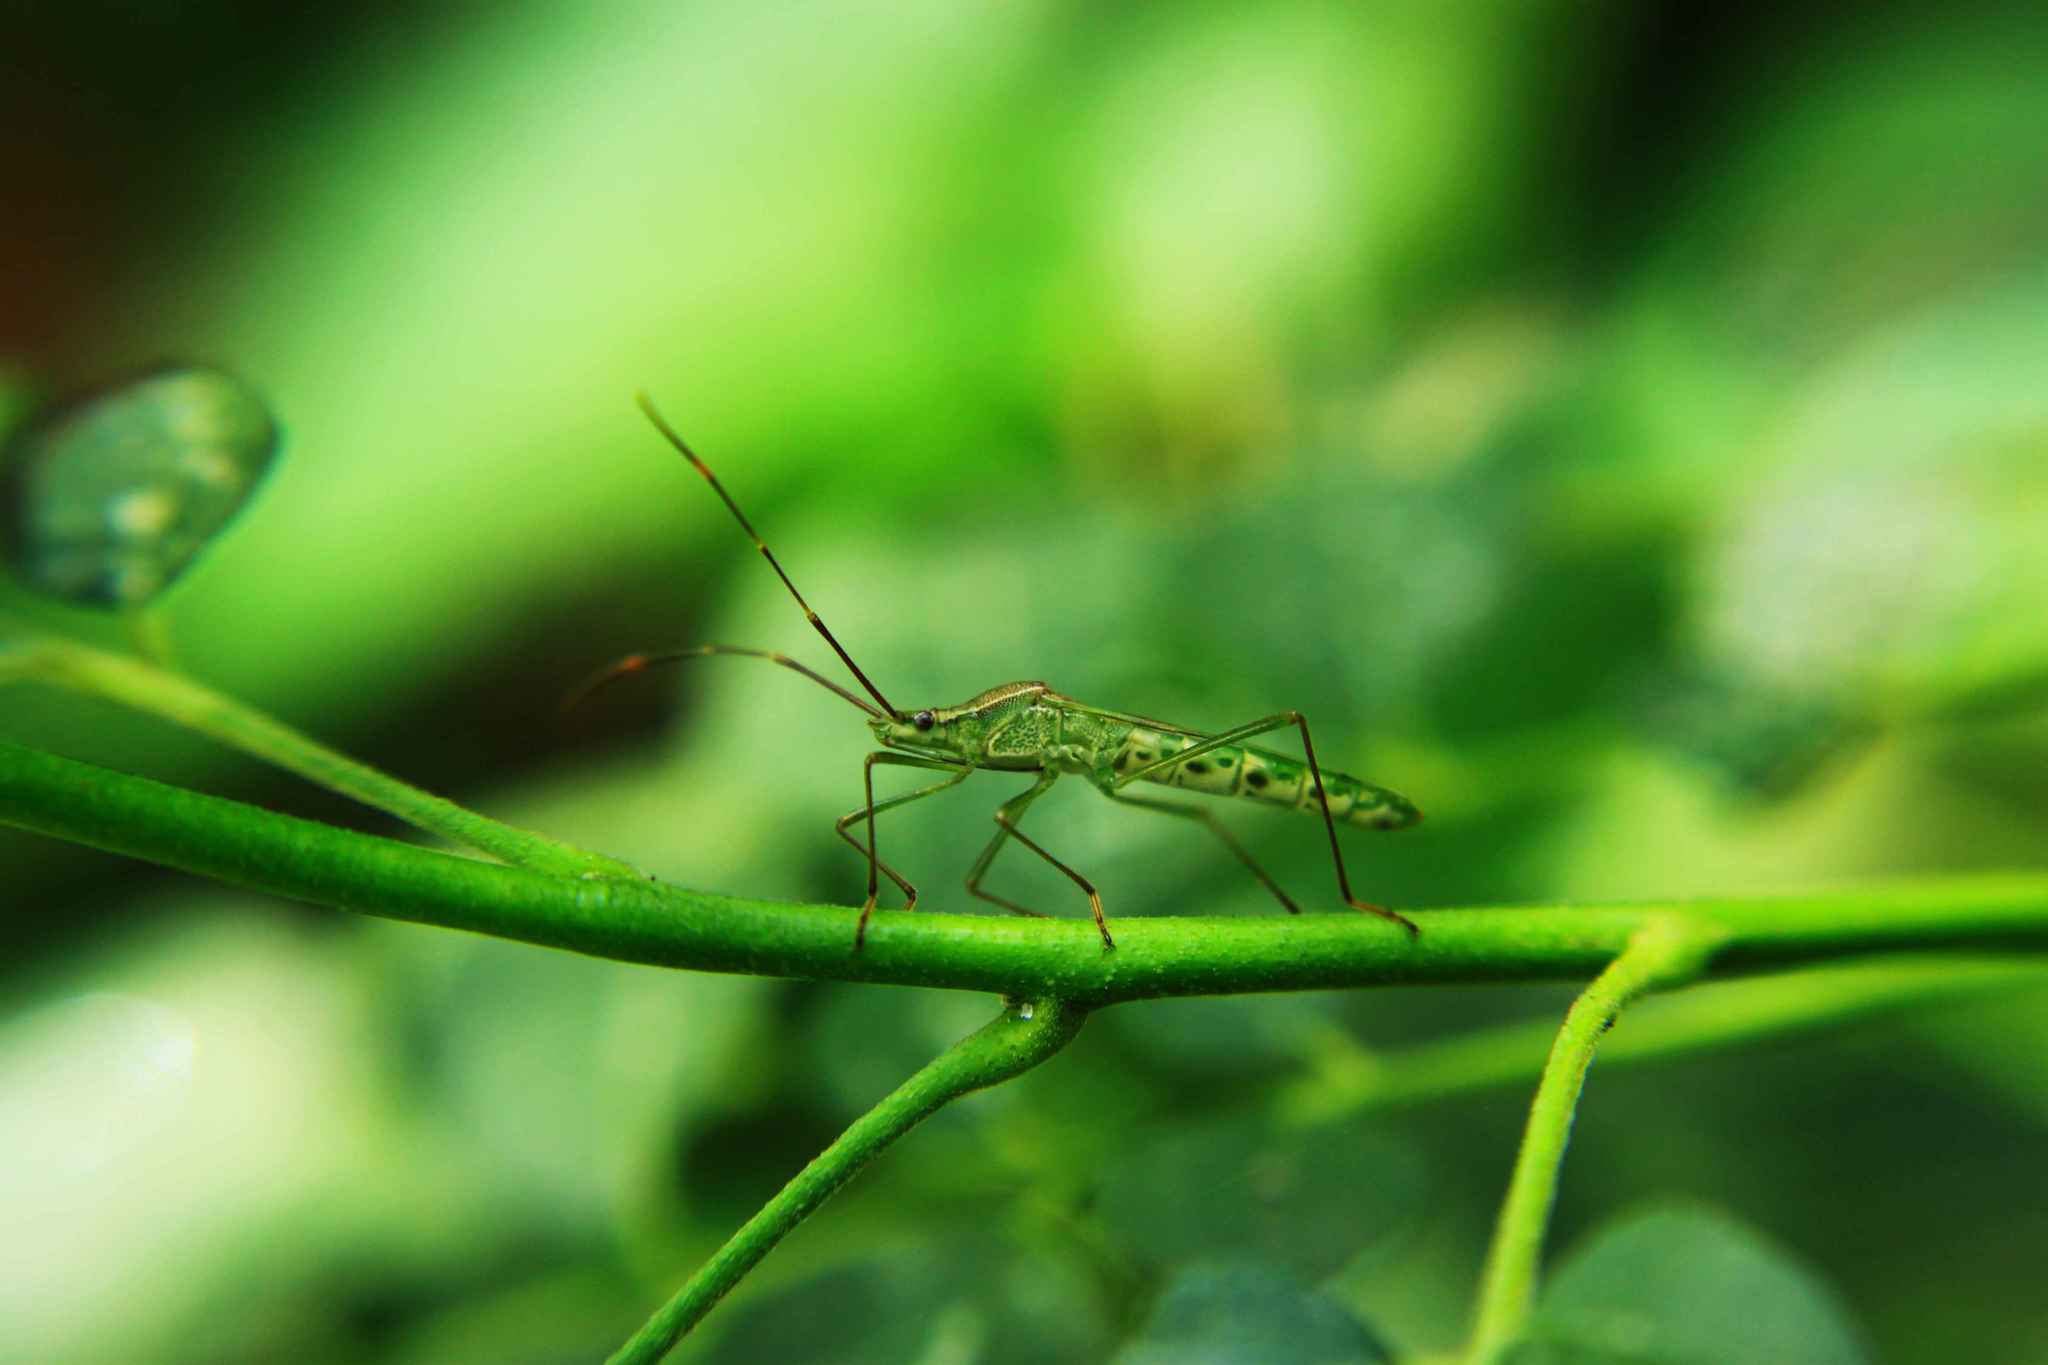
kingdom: Animalia
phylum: Arthropoda
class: Insecta
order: Hemiptera
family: Alydidae
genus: Leptocorisa
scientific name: Leptocorisa oratoria
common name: Rice ear bug
